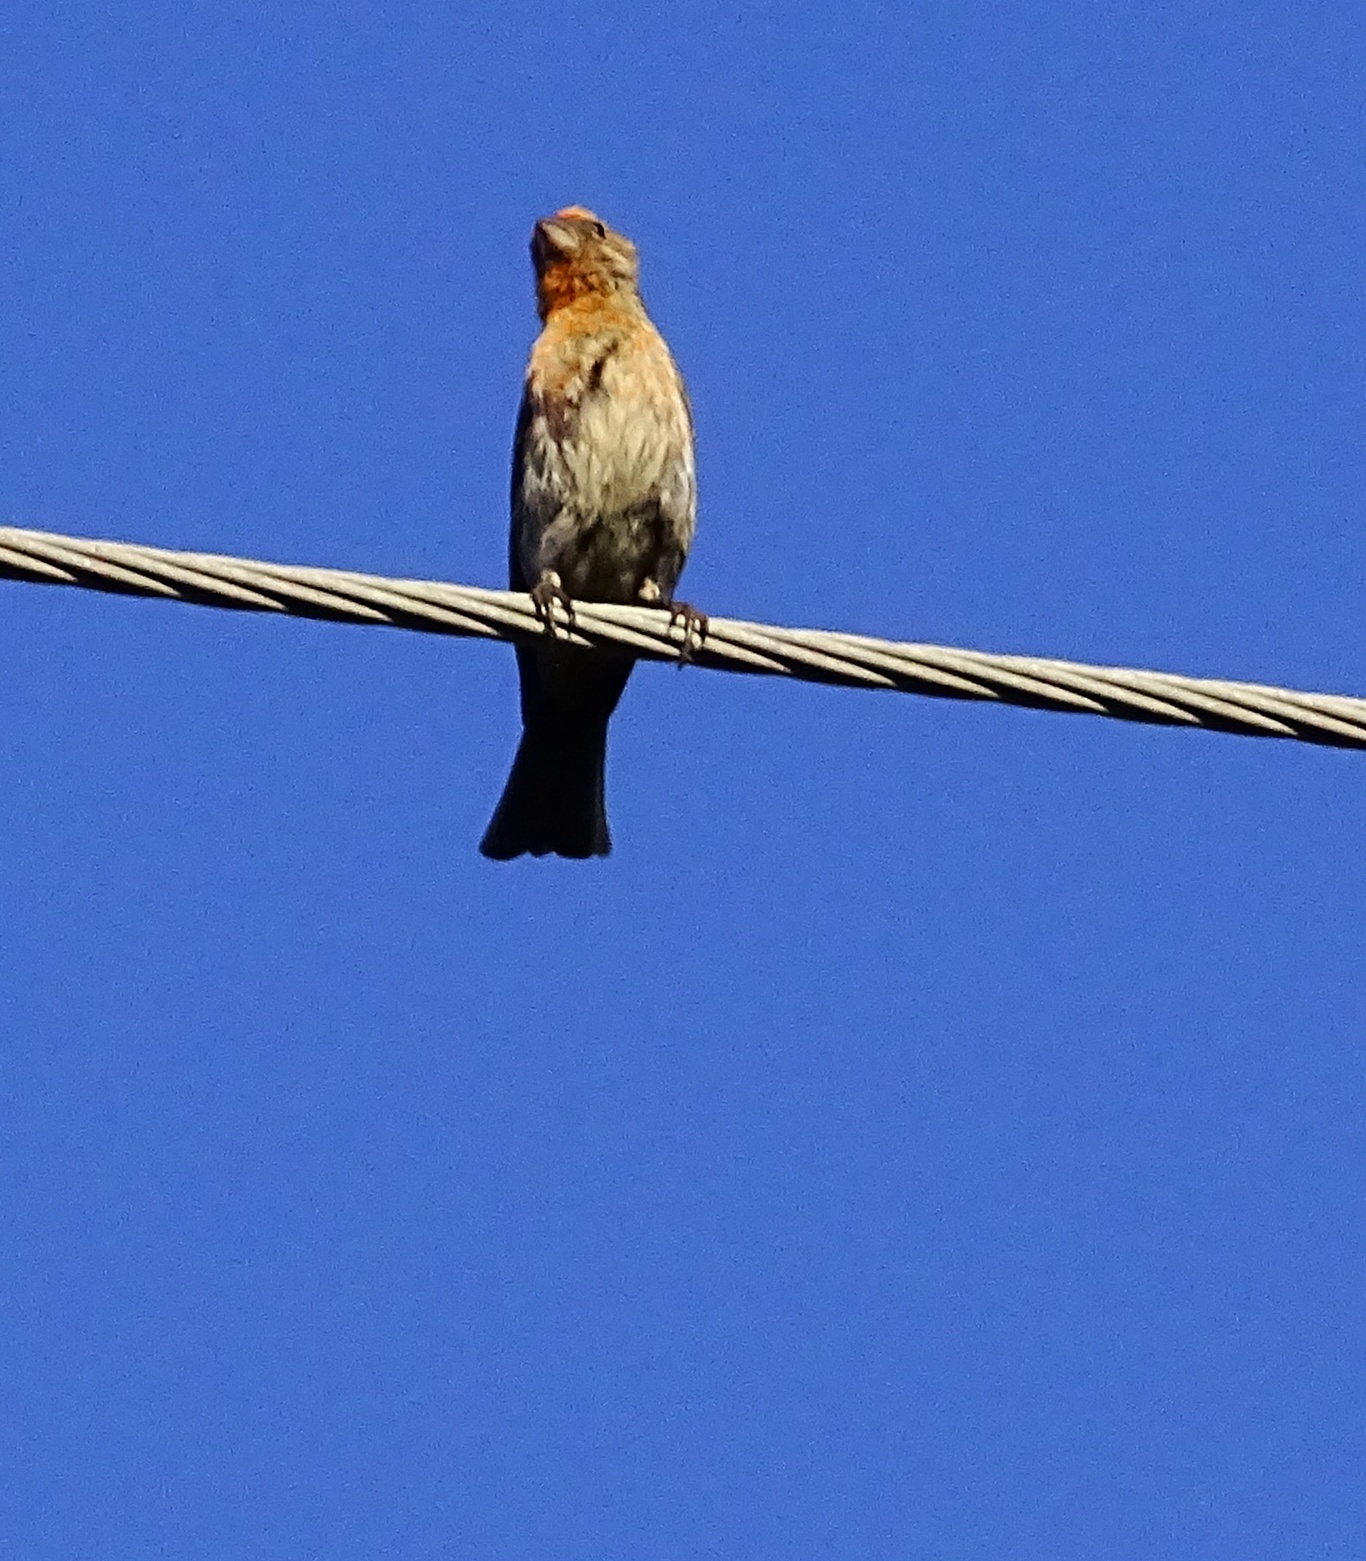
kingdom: Animalia
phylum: Chordata
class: Aves
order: Passeriformes
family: Fringillidae
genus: Haemorhous
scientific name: Haemorhous mexicanus
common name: House finch
